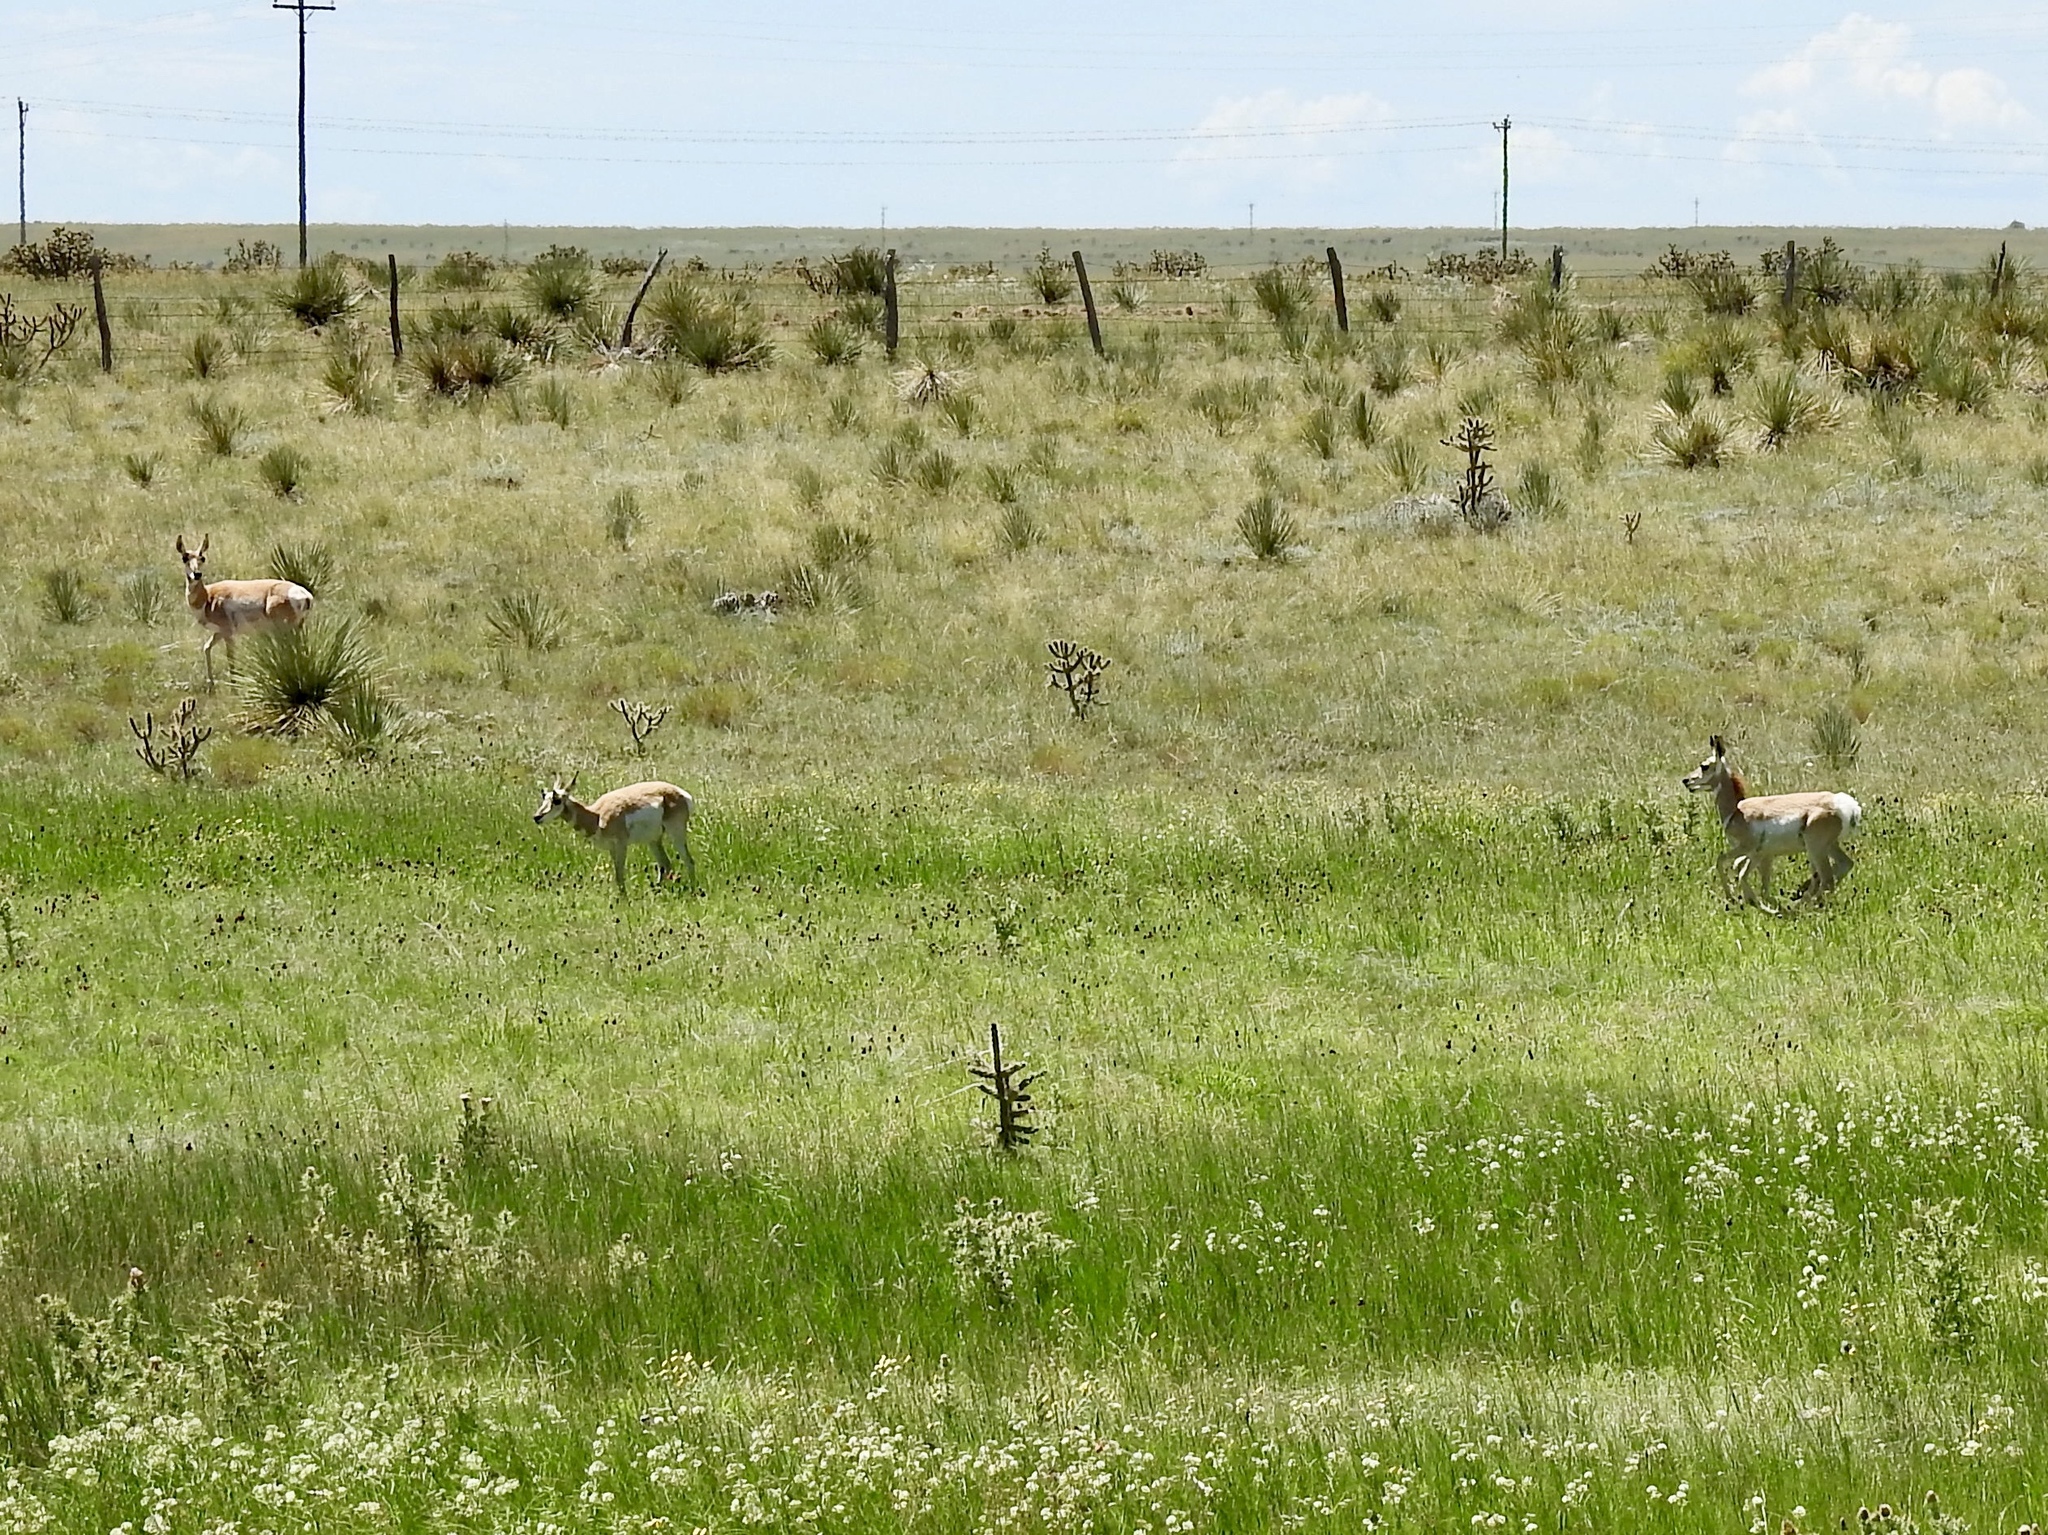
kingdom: Animalia
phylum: Chordata
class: Mammalia
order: Artiodactyla
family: Antilocapridae
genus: Antilocapra
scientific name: Antilocapra americana
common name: Pronghorn
